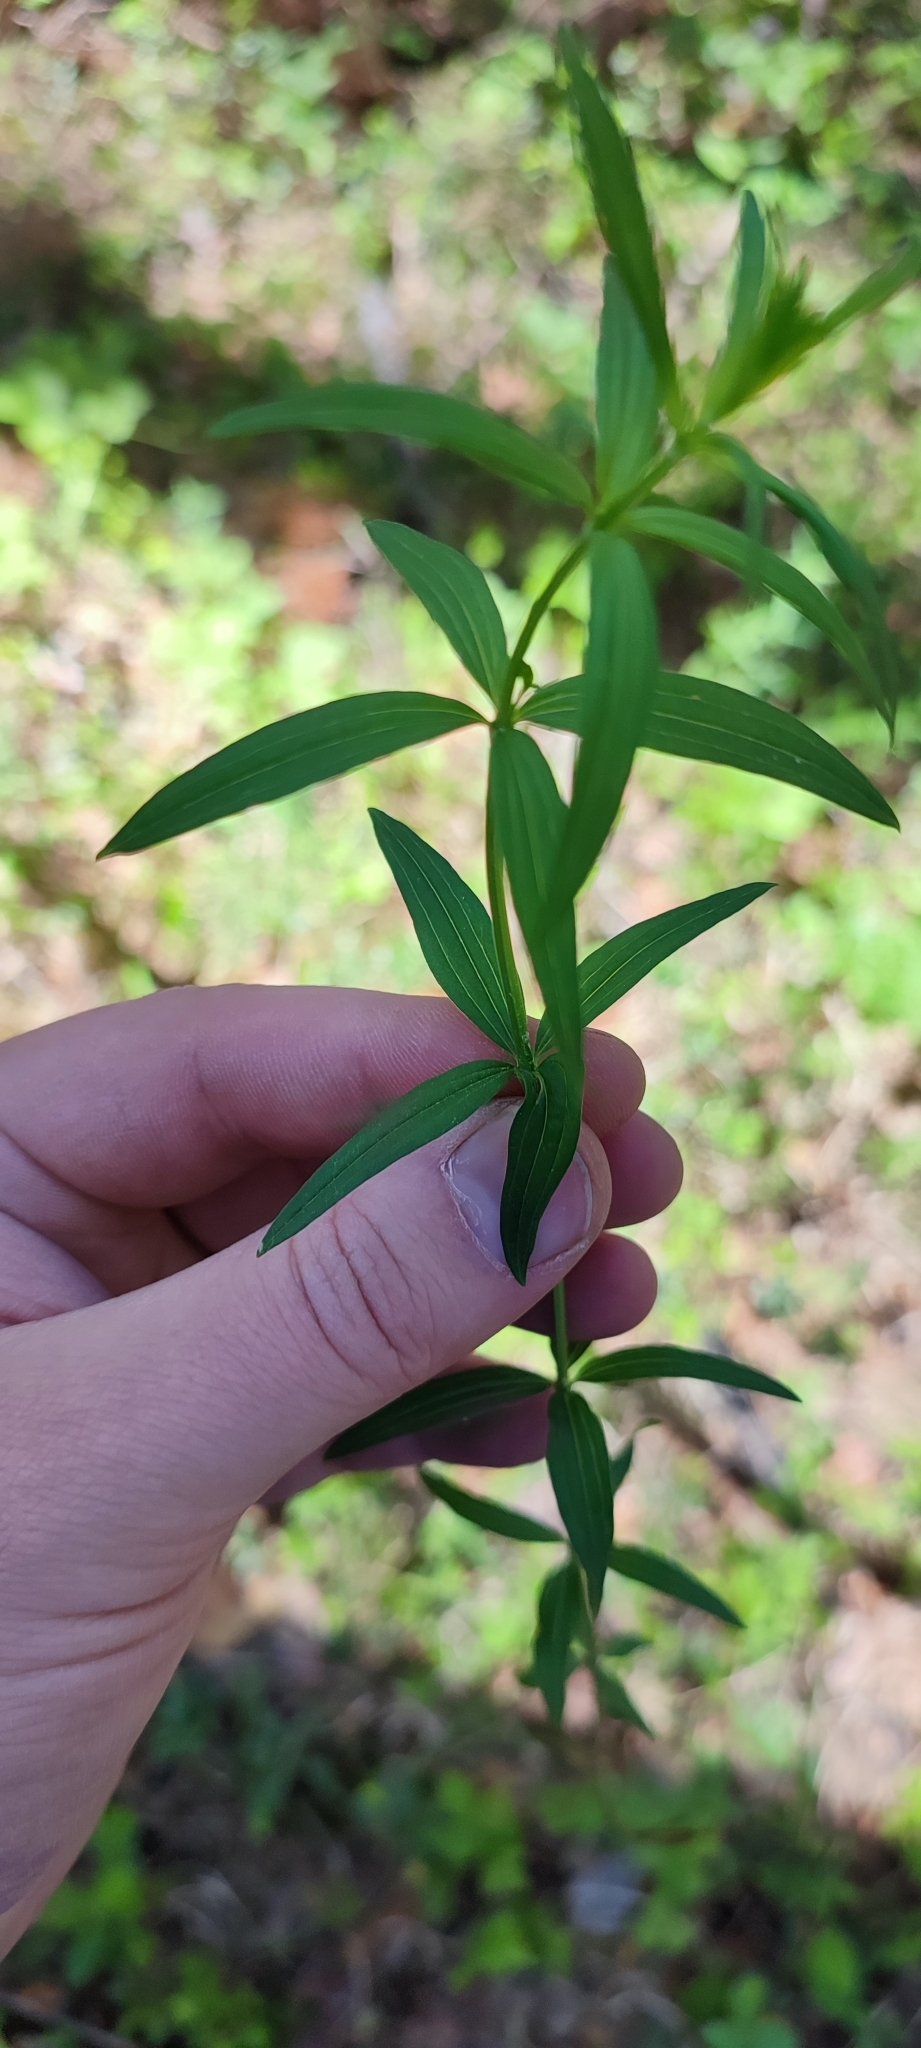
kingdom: Plantae
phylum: Tracheophyta
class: Magnoliopsida
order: Gentianales
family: Rubiaceae
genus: Galium
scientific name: Galium boreale
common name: Northern bedstraw
